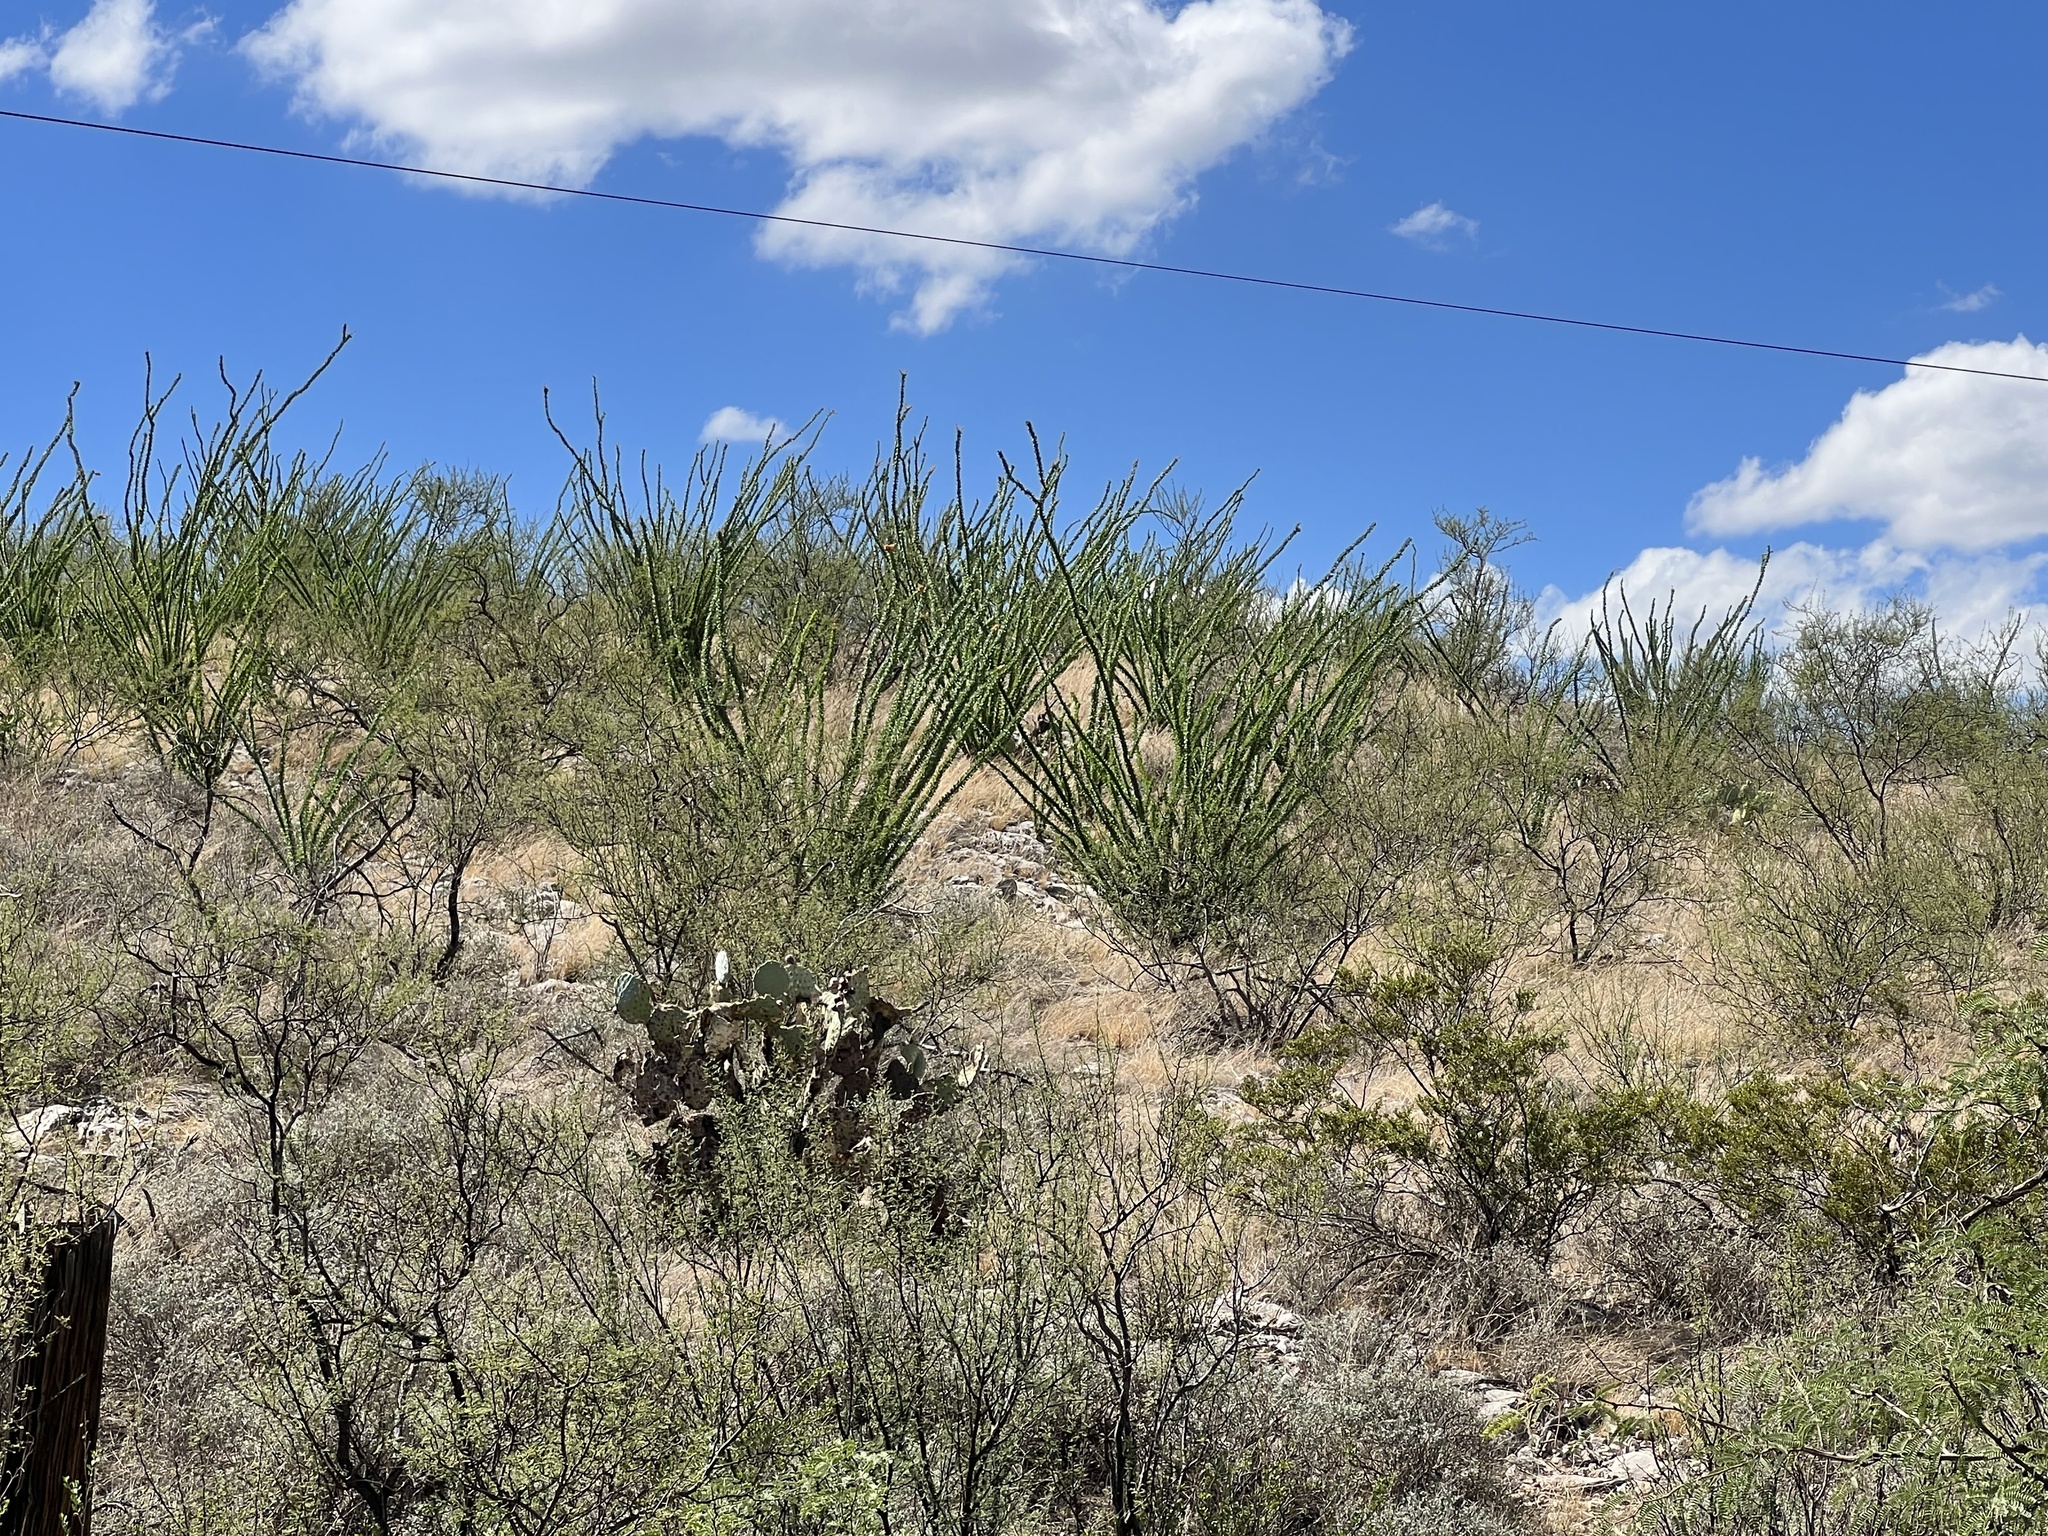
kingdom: Plantae
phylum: Tracheophyta
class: Magnoliopsida
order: Ericales
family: Fouquieriaceae
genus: Fouquieria
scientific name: Fouquieria splendens
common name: Vine-cactus
